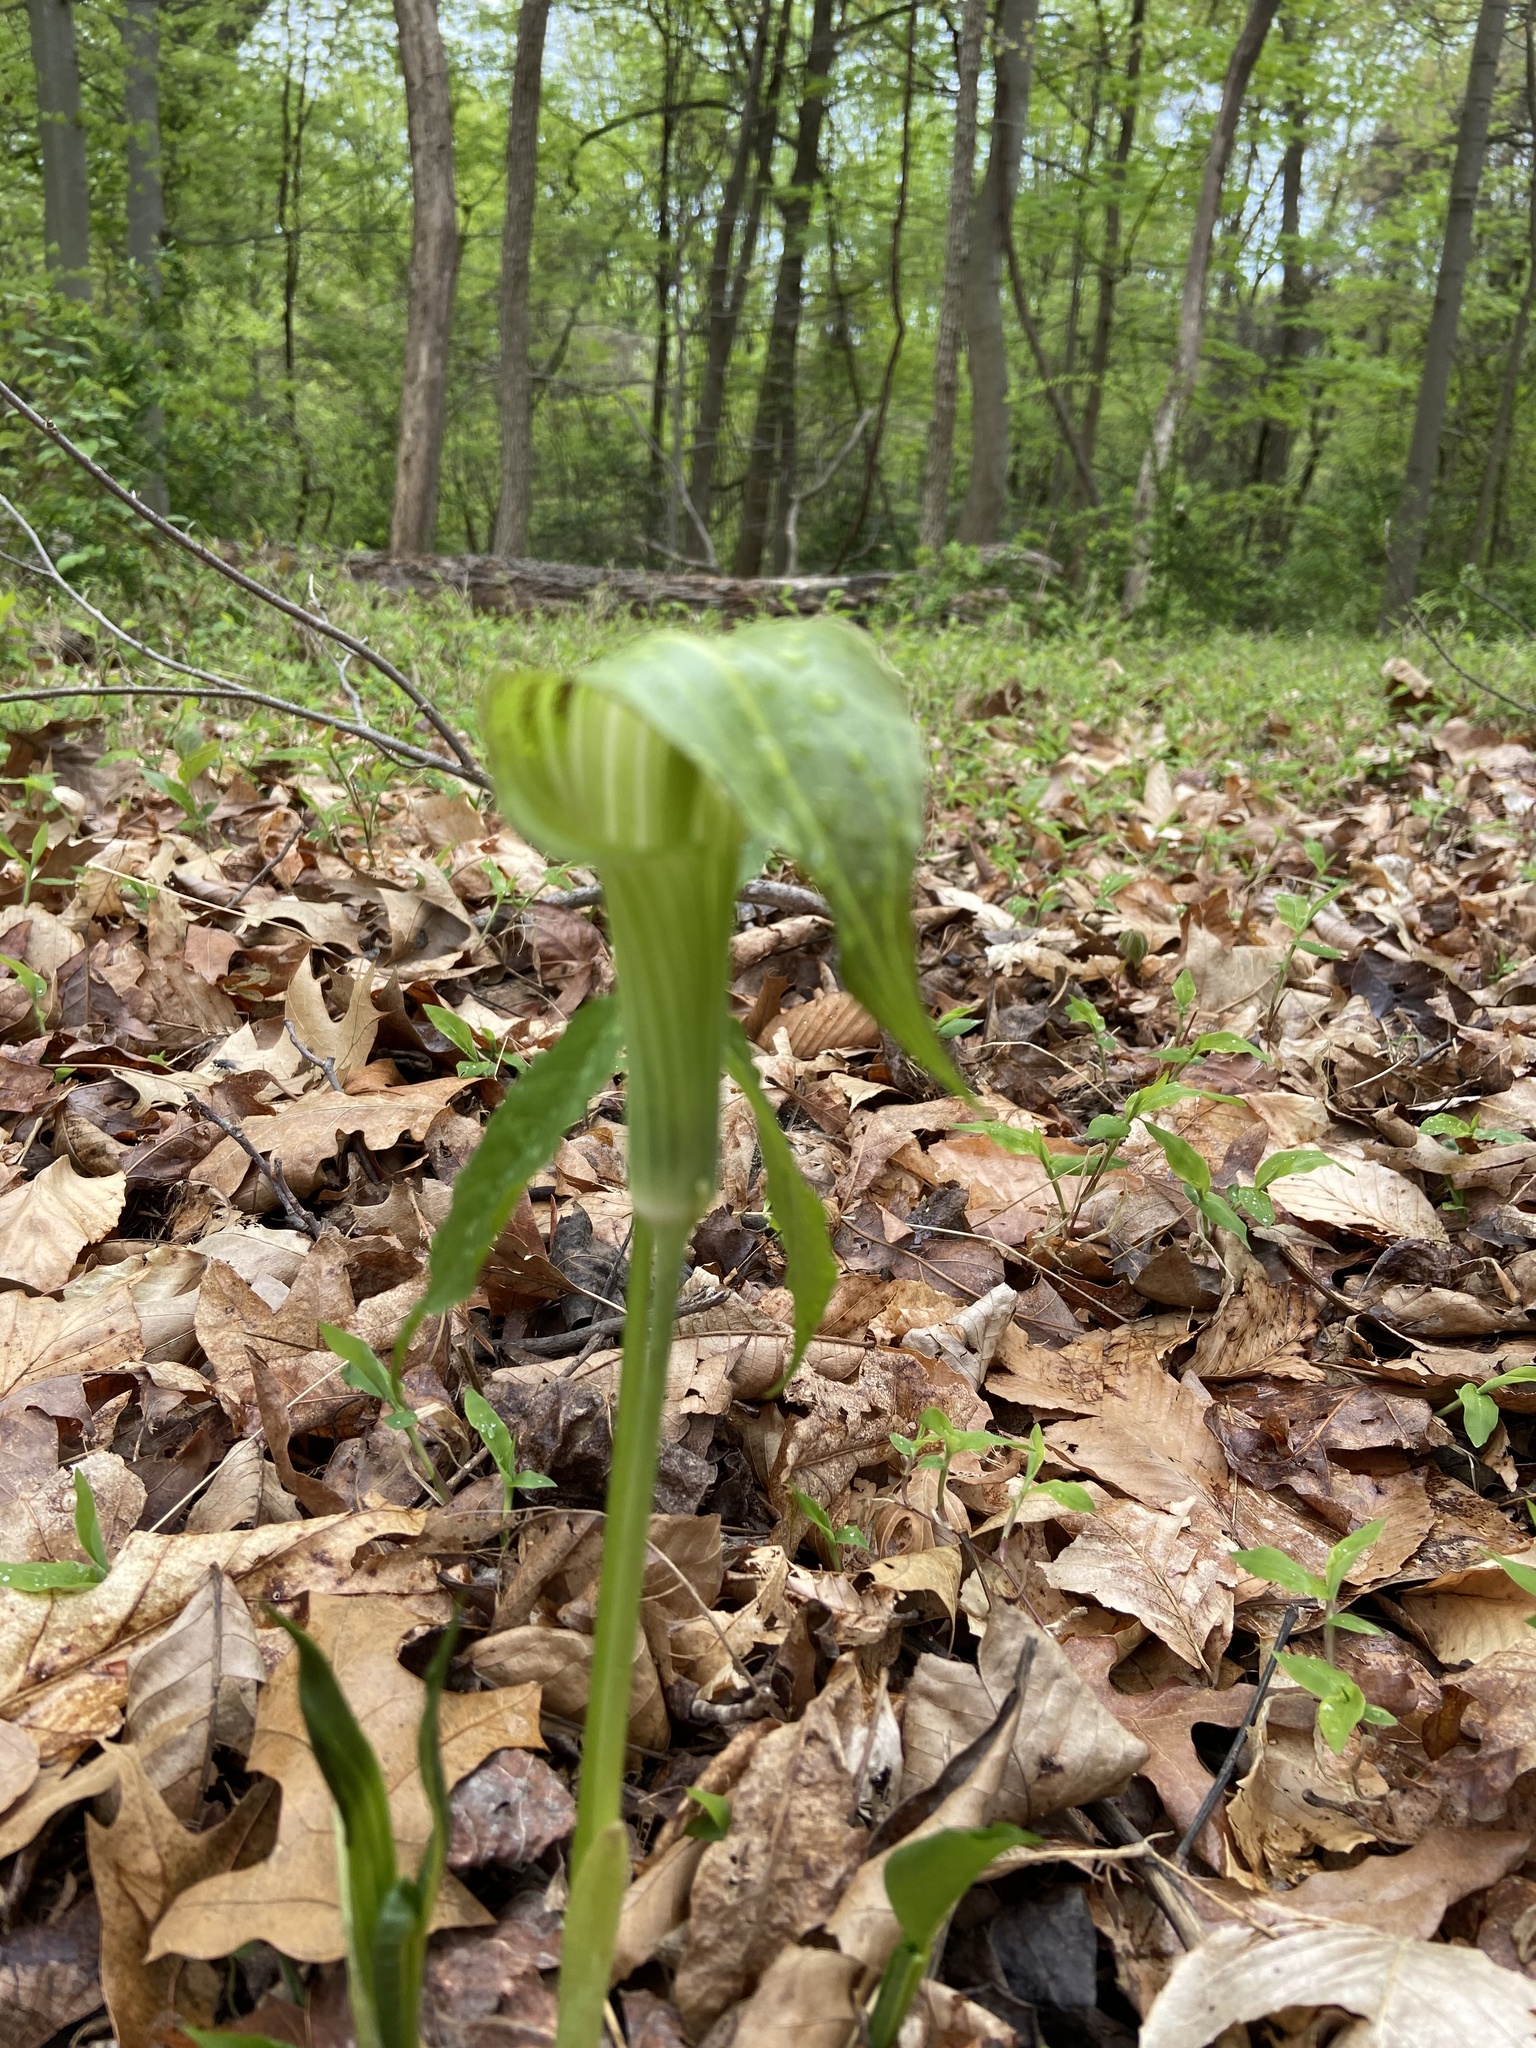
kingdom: Plantae
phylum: Tracheophyta
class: Liliopsida
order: Alismatales
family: Araceae
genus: Arisaema
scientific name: Arisaema triphyllum
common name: Jack-in-the-pulpit
